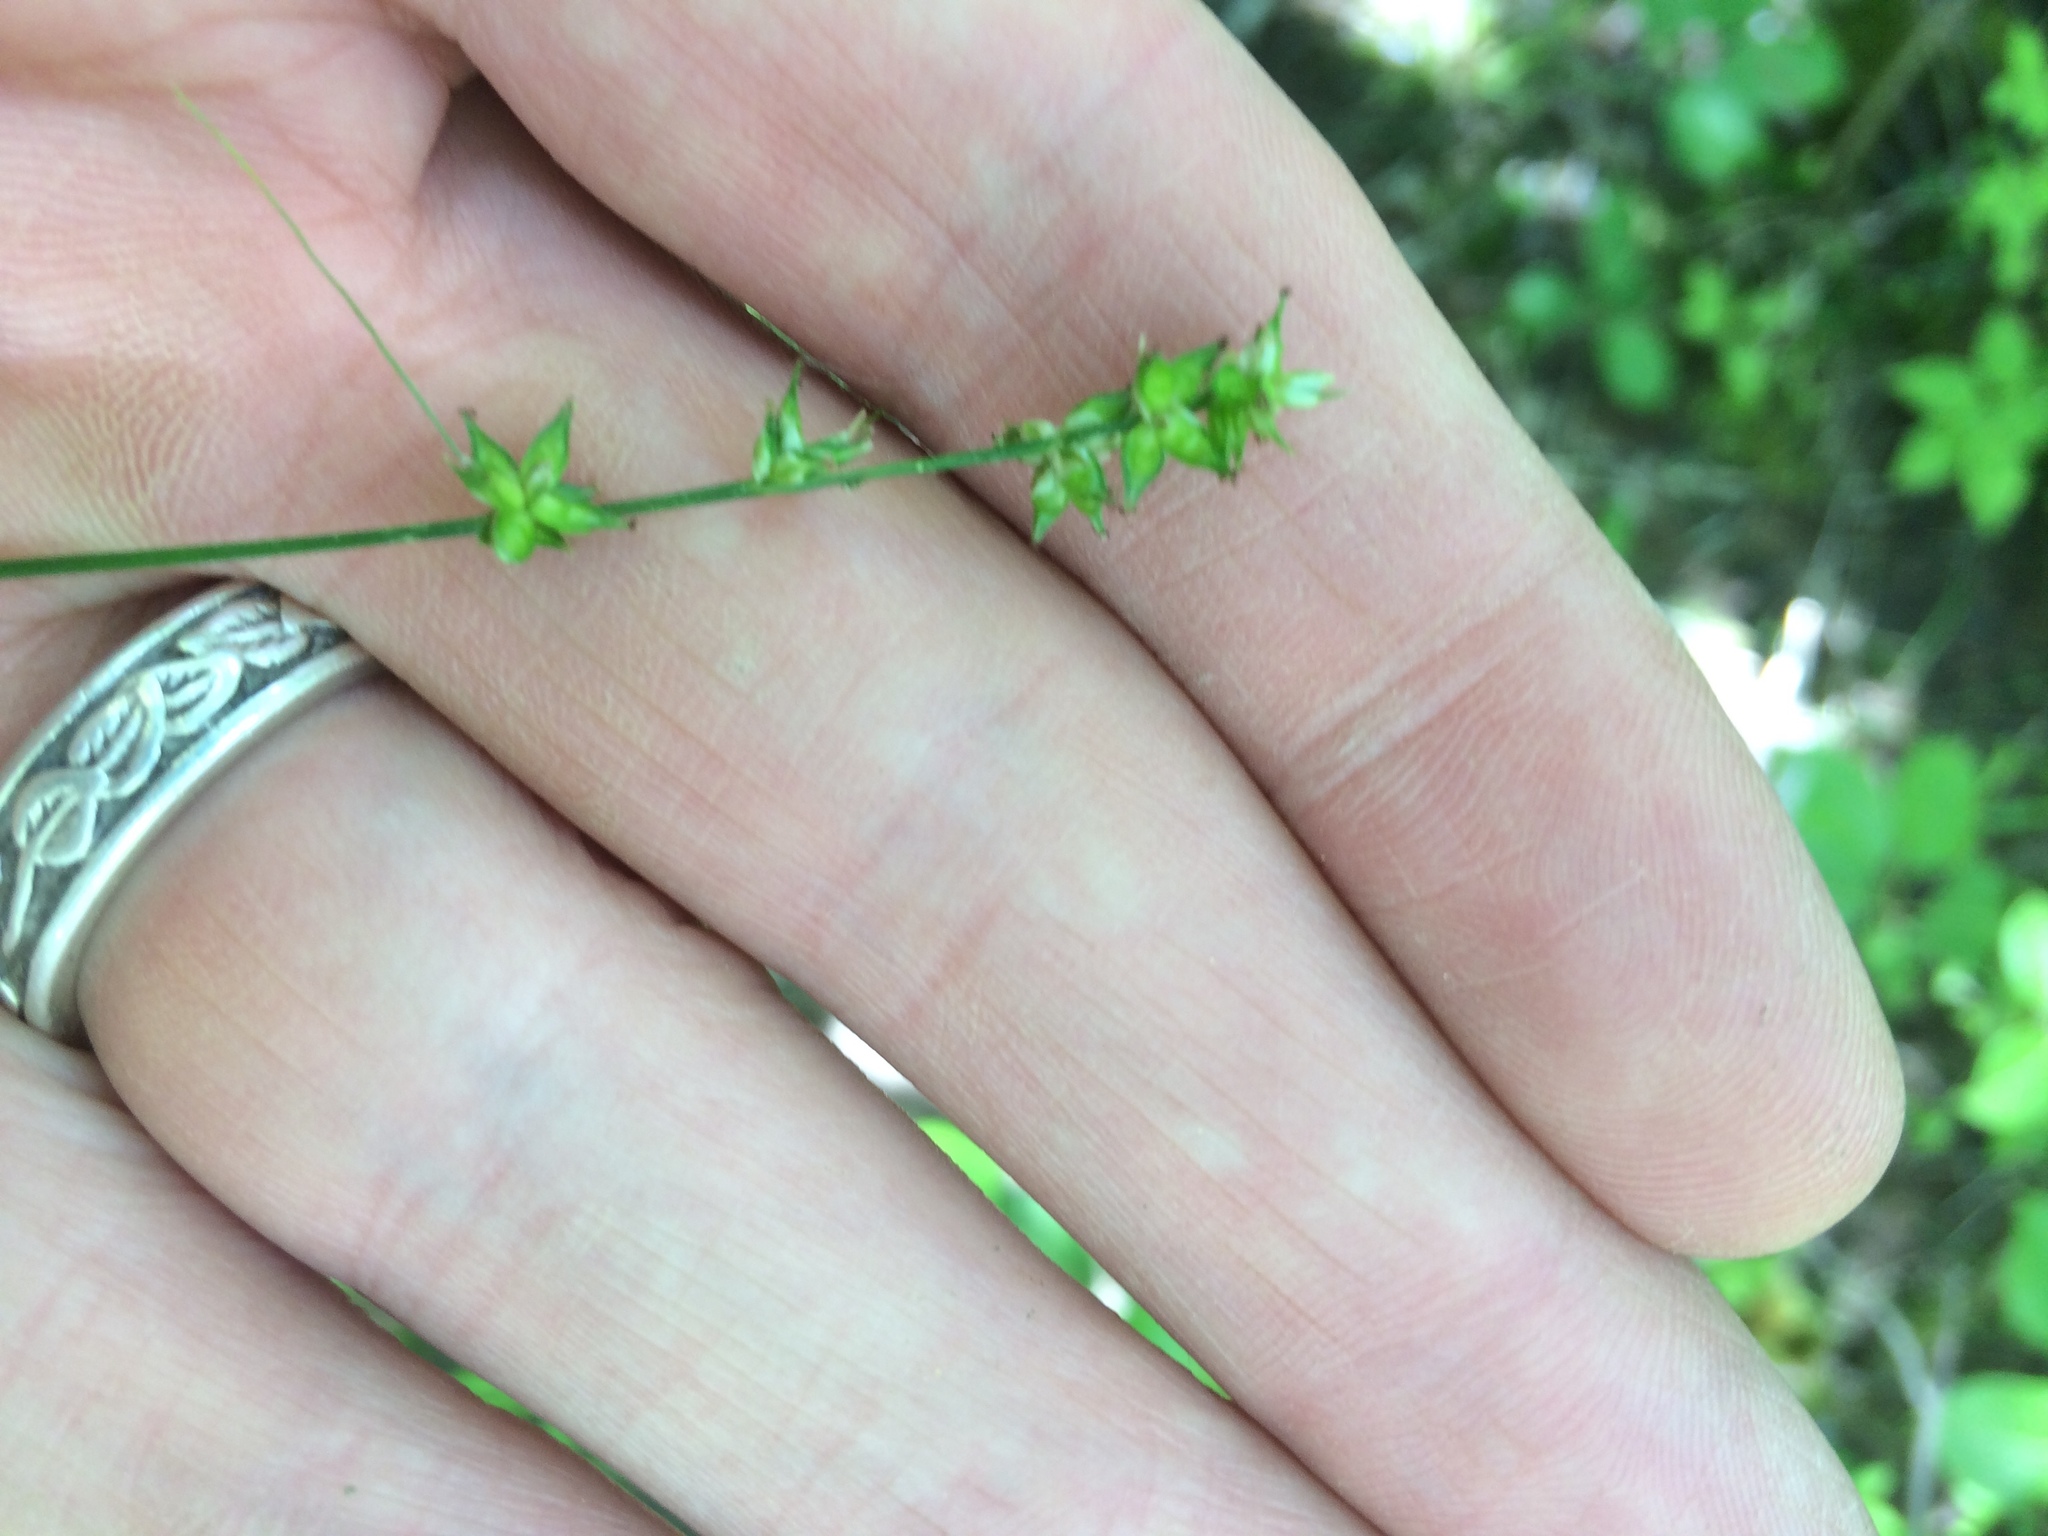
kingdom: Plantae
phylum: Tracheophyta
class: Liliopsida
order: Poales
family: Cyperaceae
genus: Carex
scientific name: Carex rosea
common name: Curly-styled wood sedge
